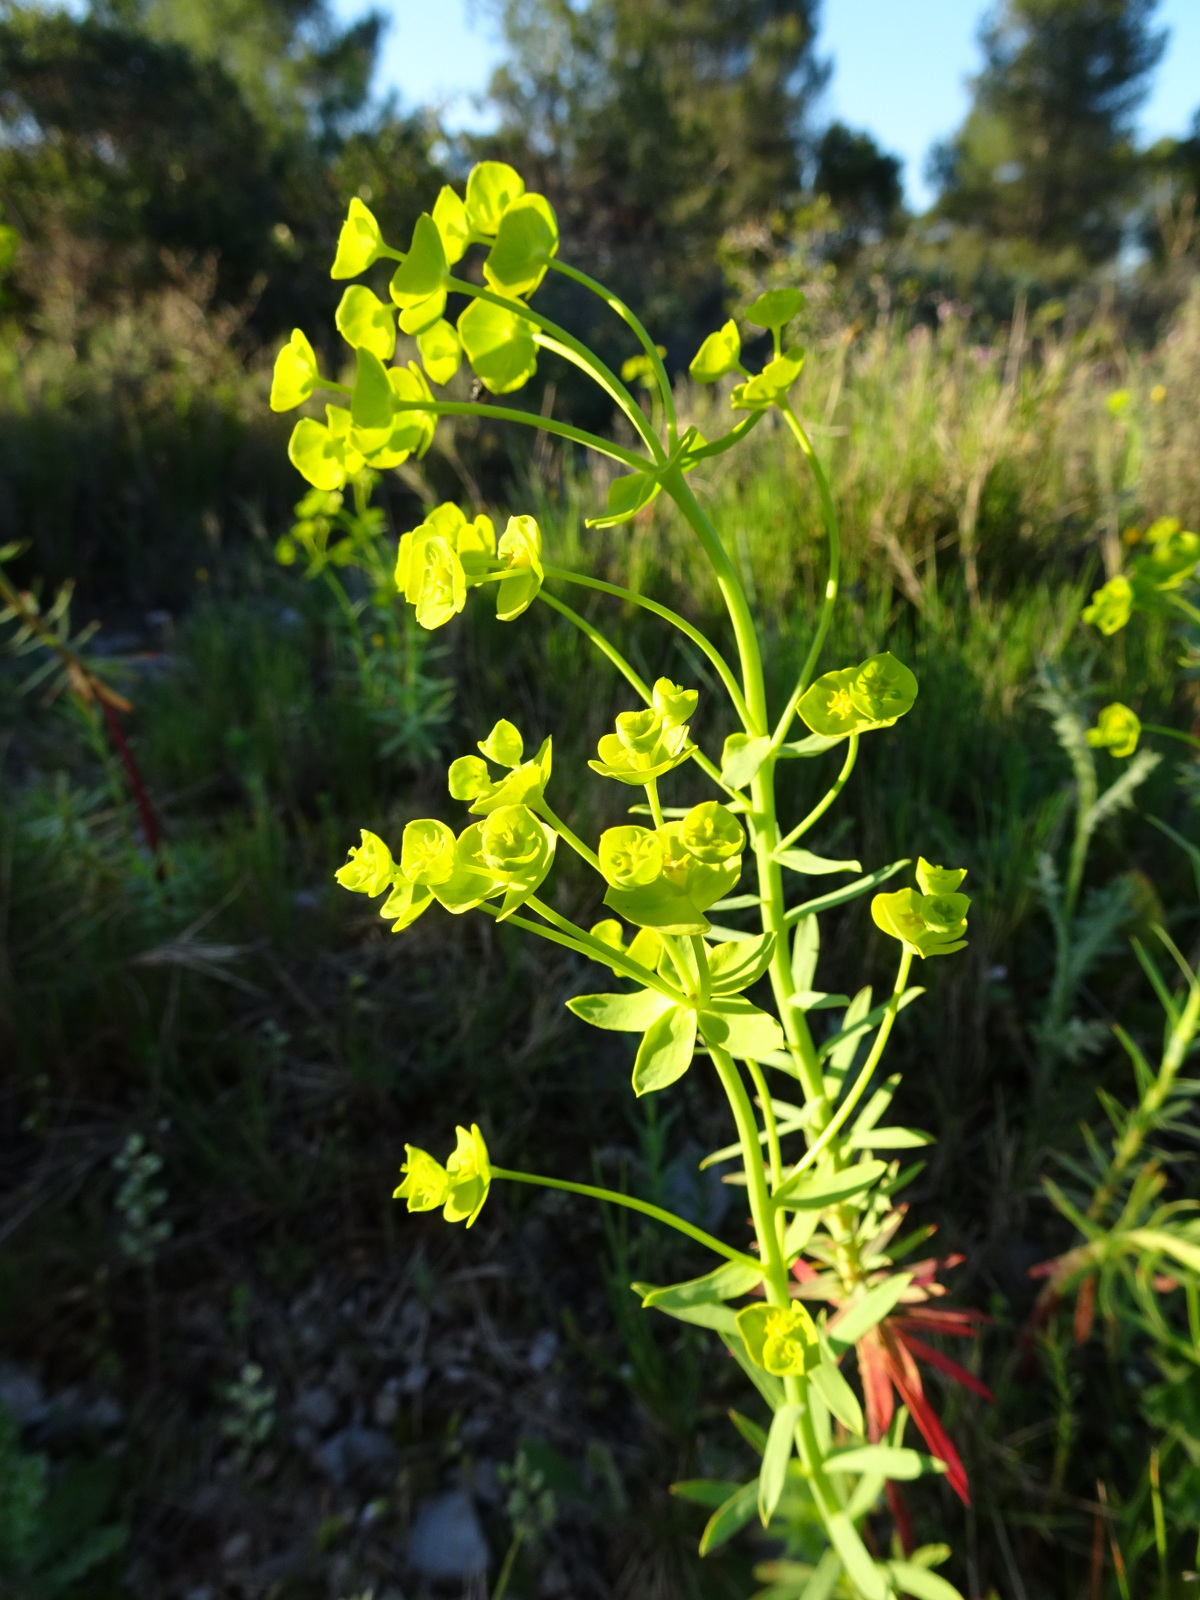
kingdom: Plantae
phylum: Tracheophyta
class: Magnoliopsida
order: Malpighiales
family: Euphorbiaceae
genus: Euphorbia
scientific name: Euphorbia cyparissias
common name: Cypress spurge
